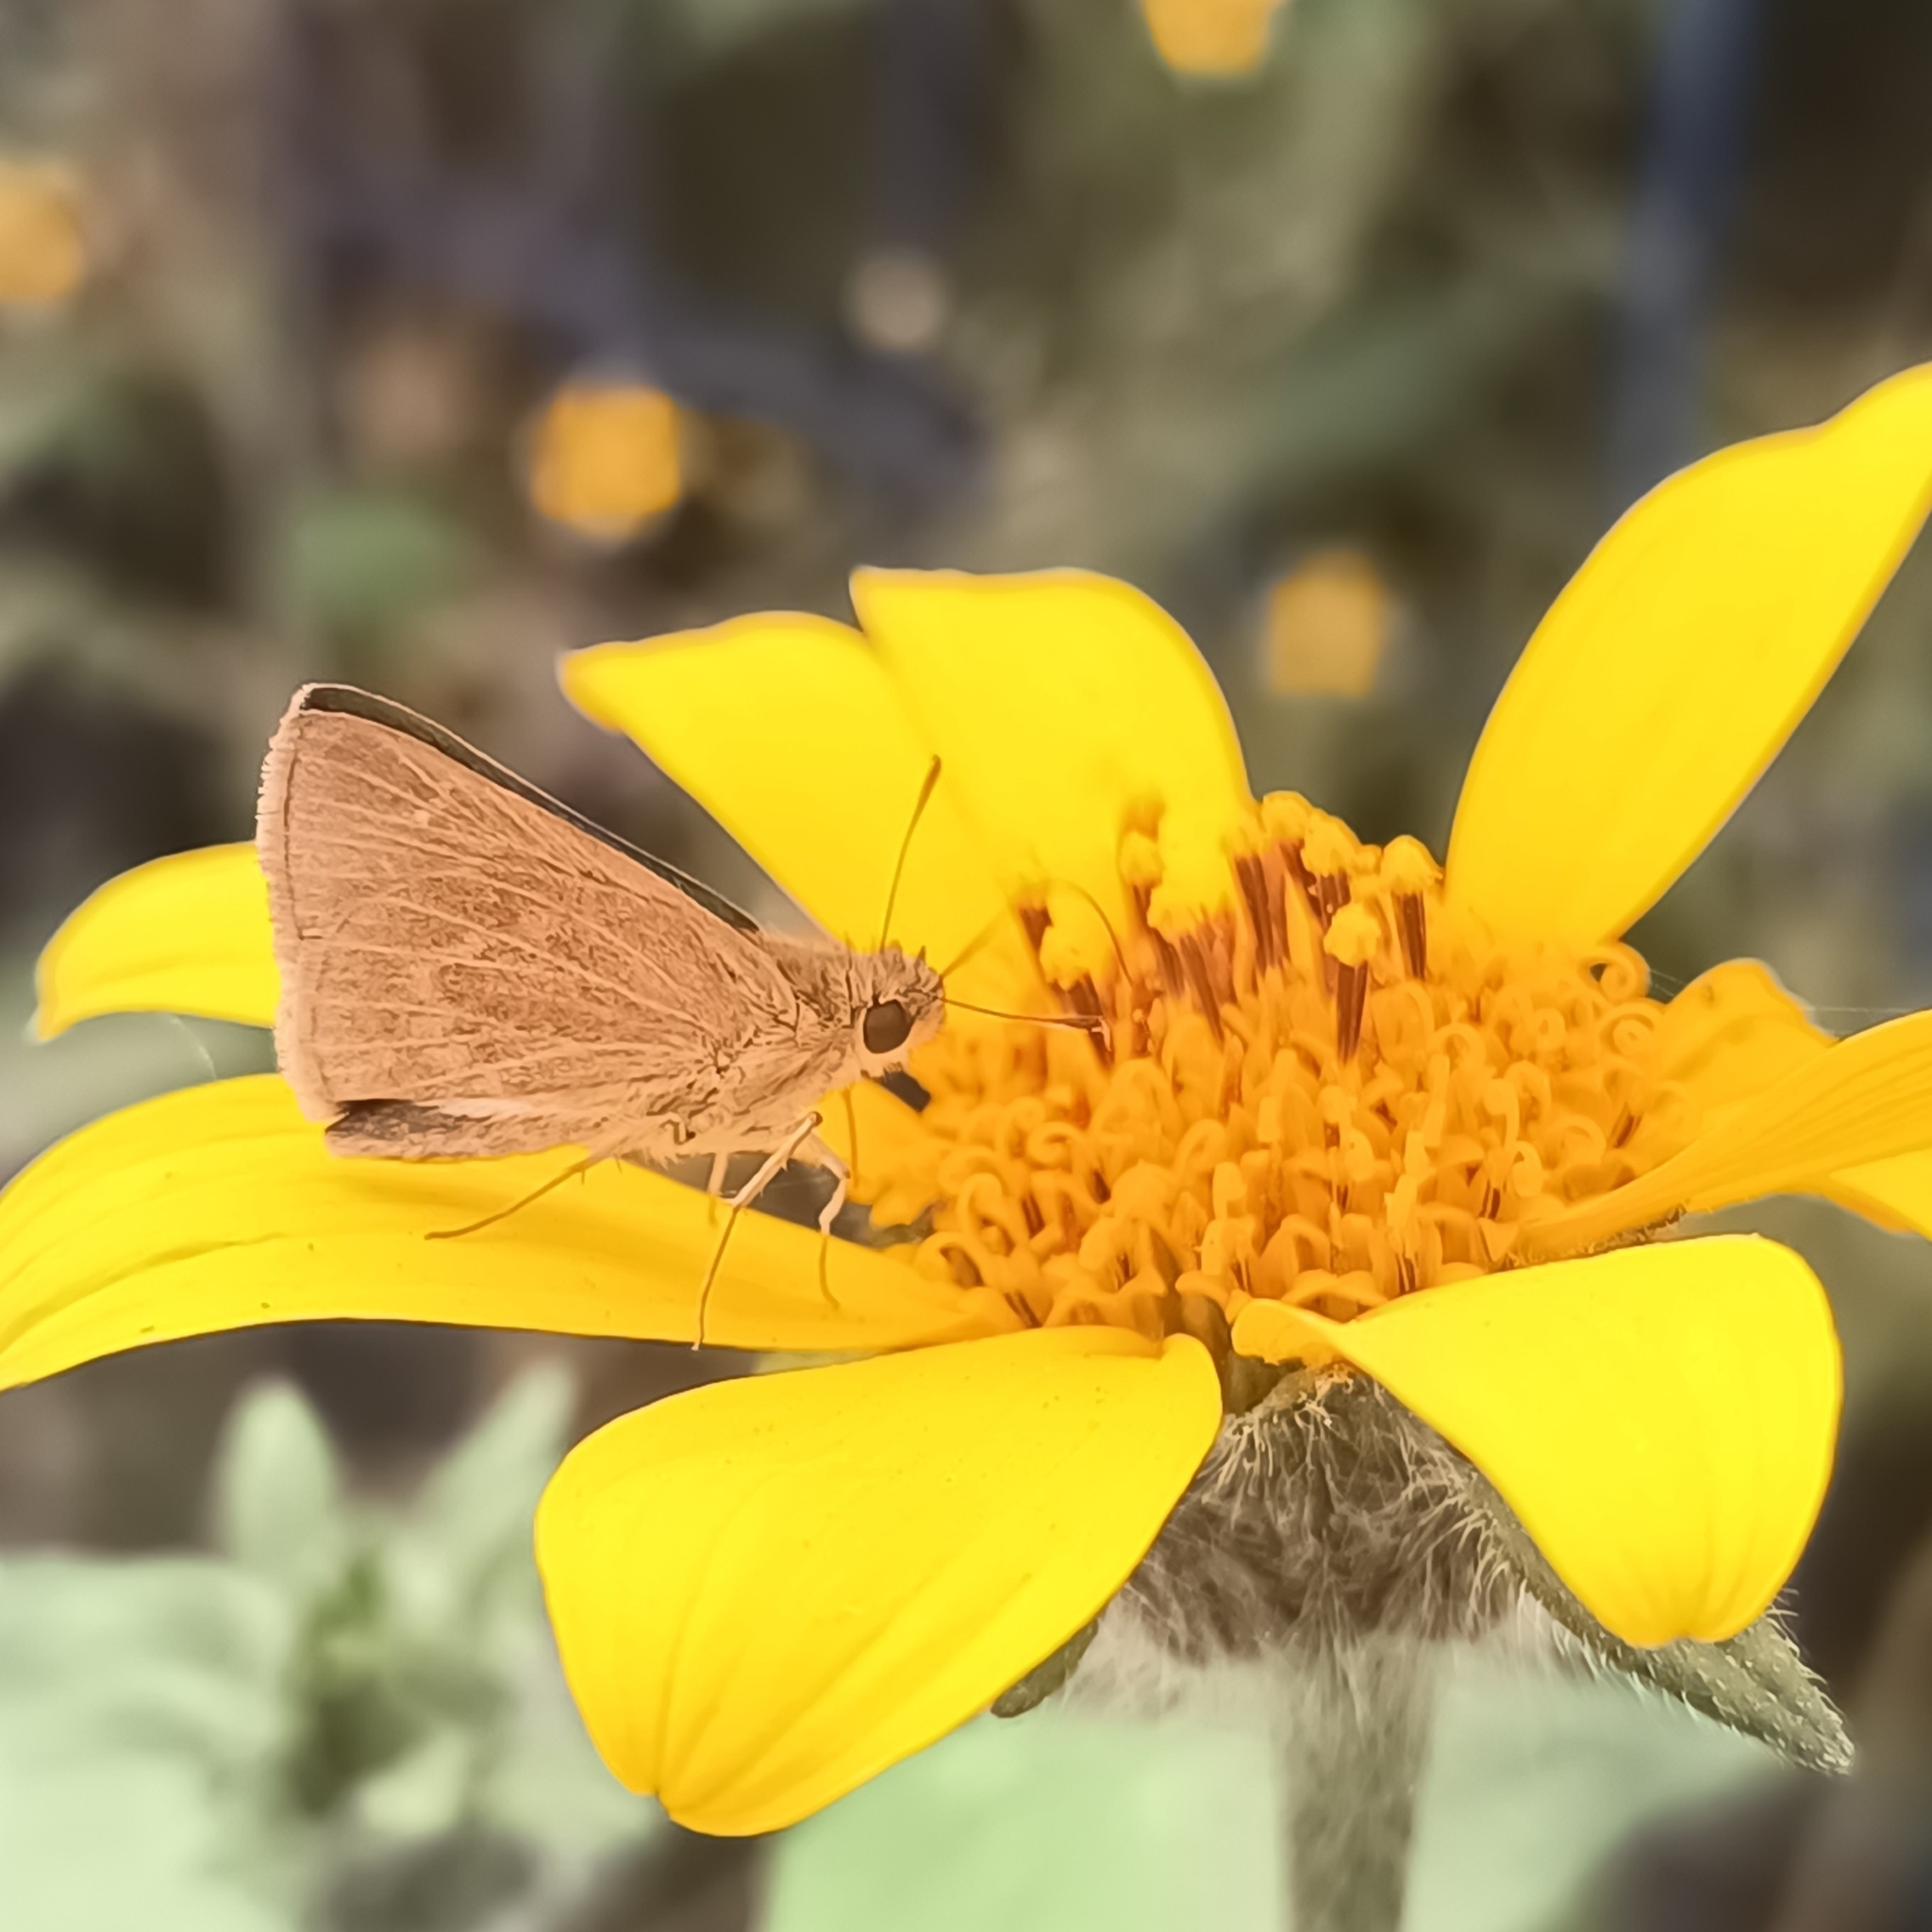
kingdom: Animalia
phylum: Arthropoda
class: Insecta
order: Lepidoptera
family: Hesperiidae
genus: Nastra
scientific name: Nastra julia
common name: Julia's skipper
